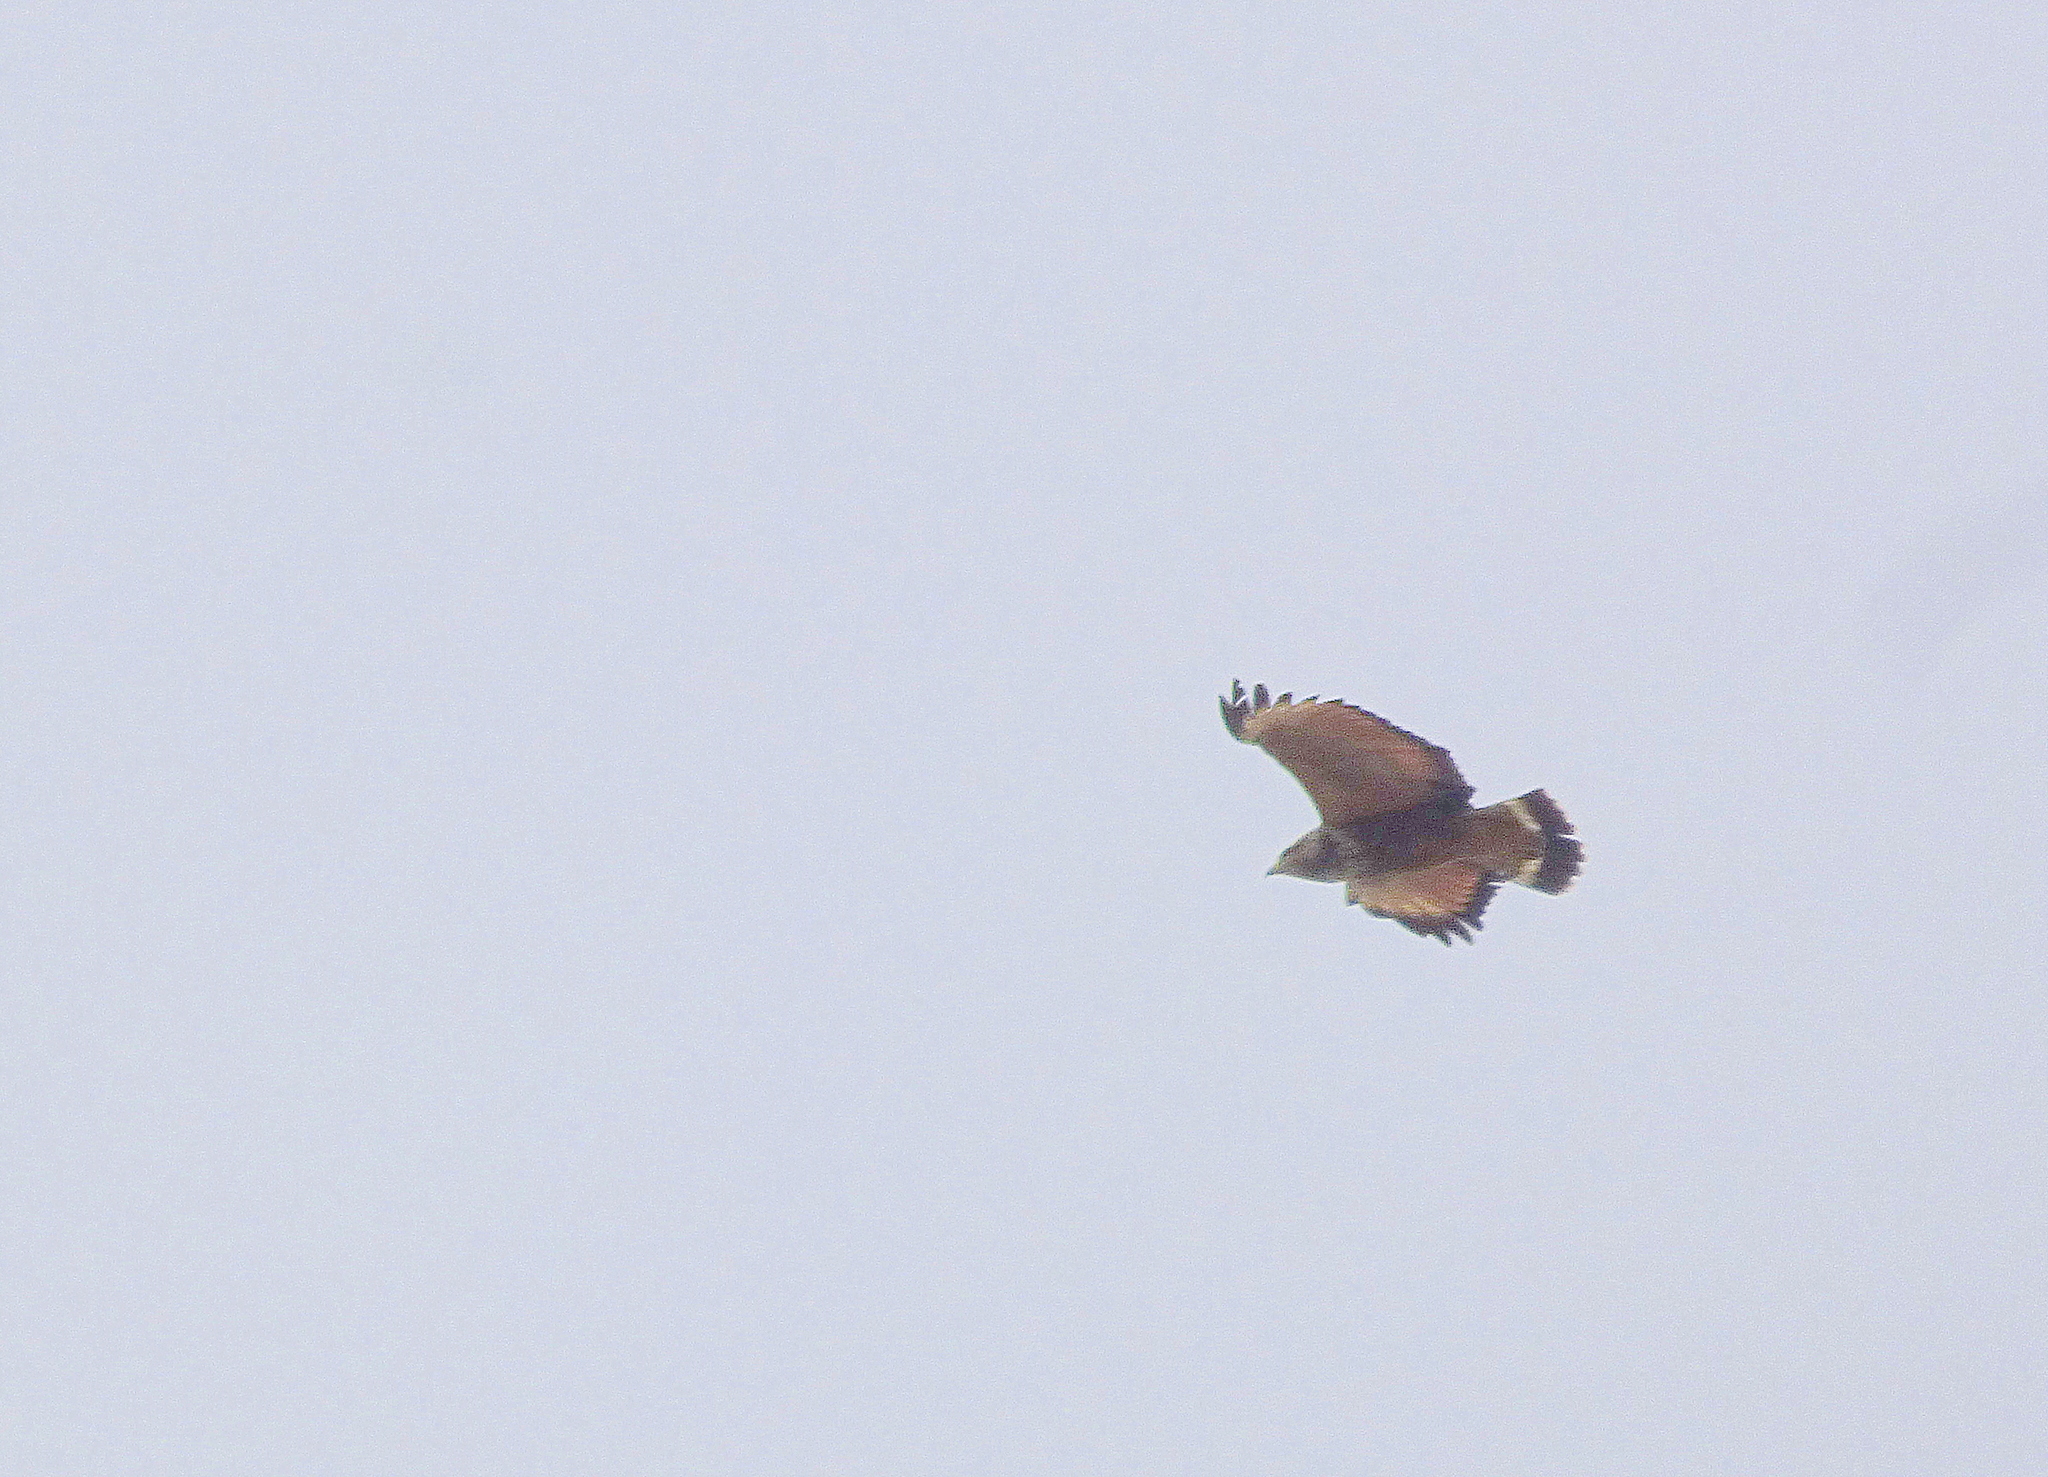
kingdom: Animalia
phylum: Chordata
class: Aves
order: Accipitriformes
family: Accipitridae
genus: Buteogallus
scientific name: Buteogallus meridionalis
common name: Savanna hawk
